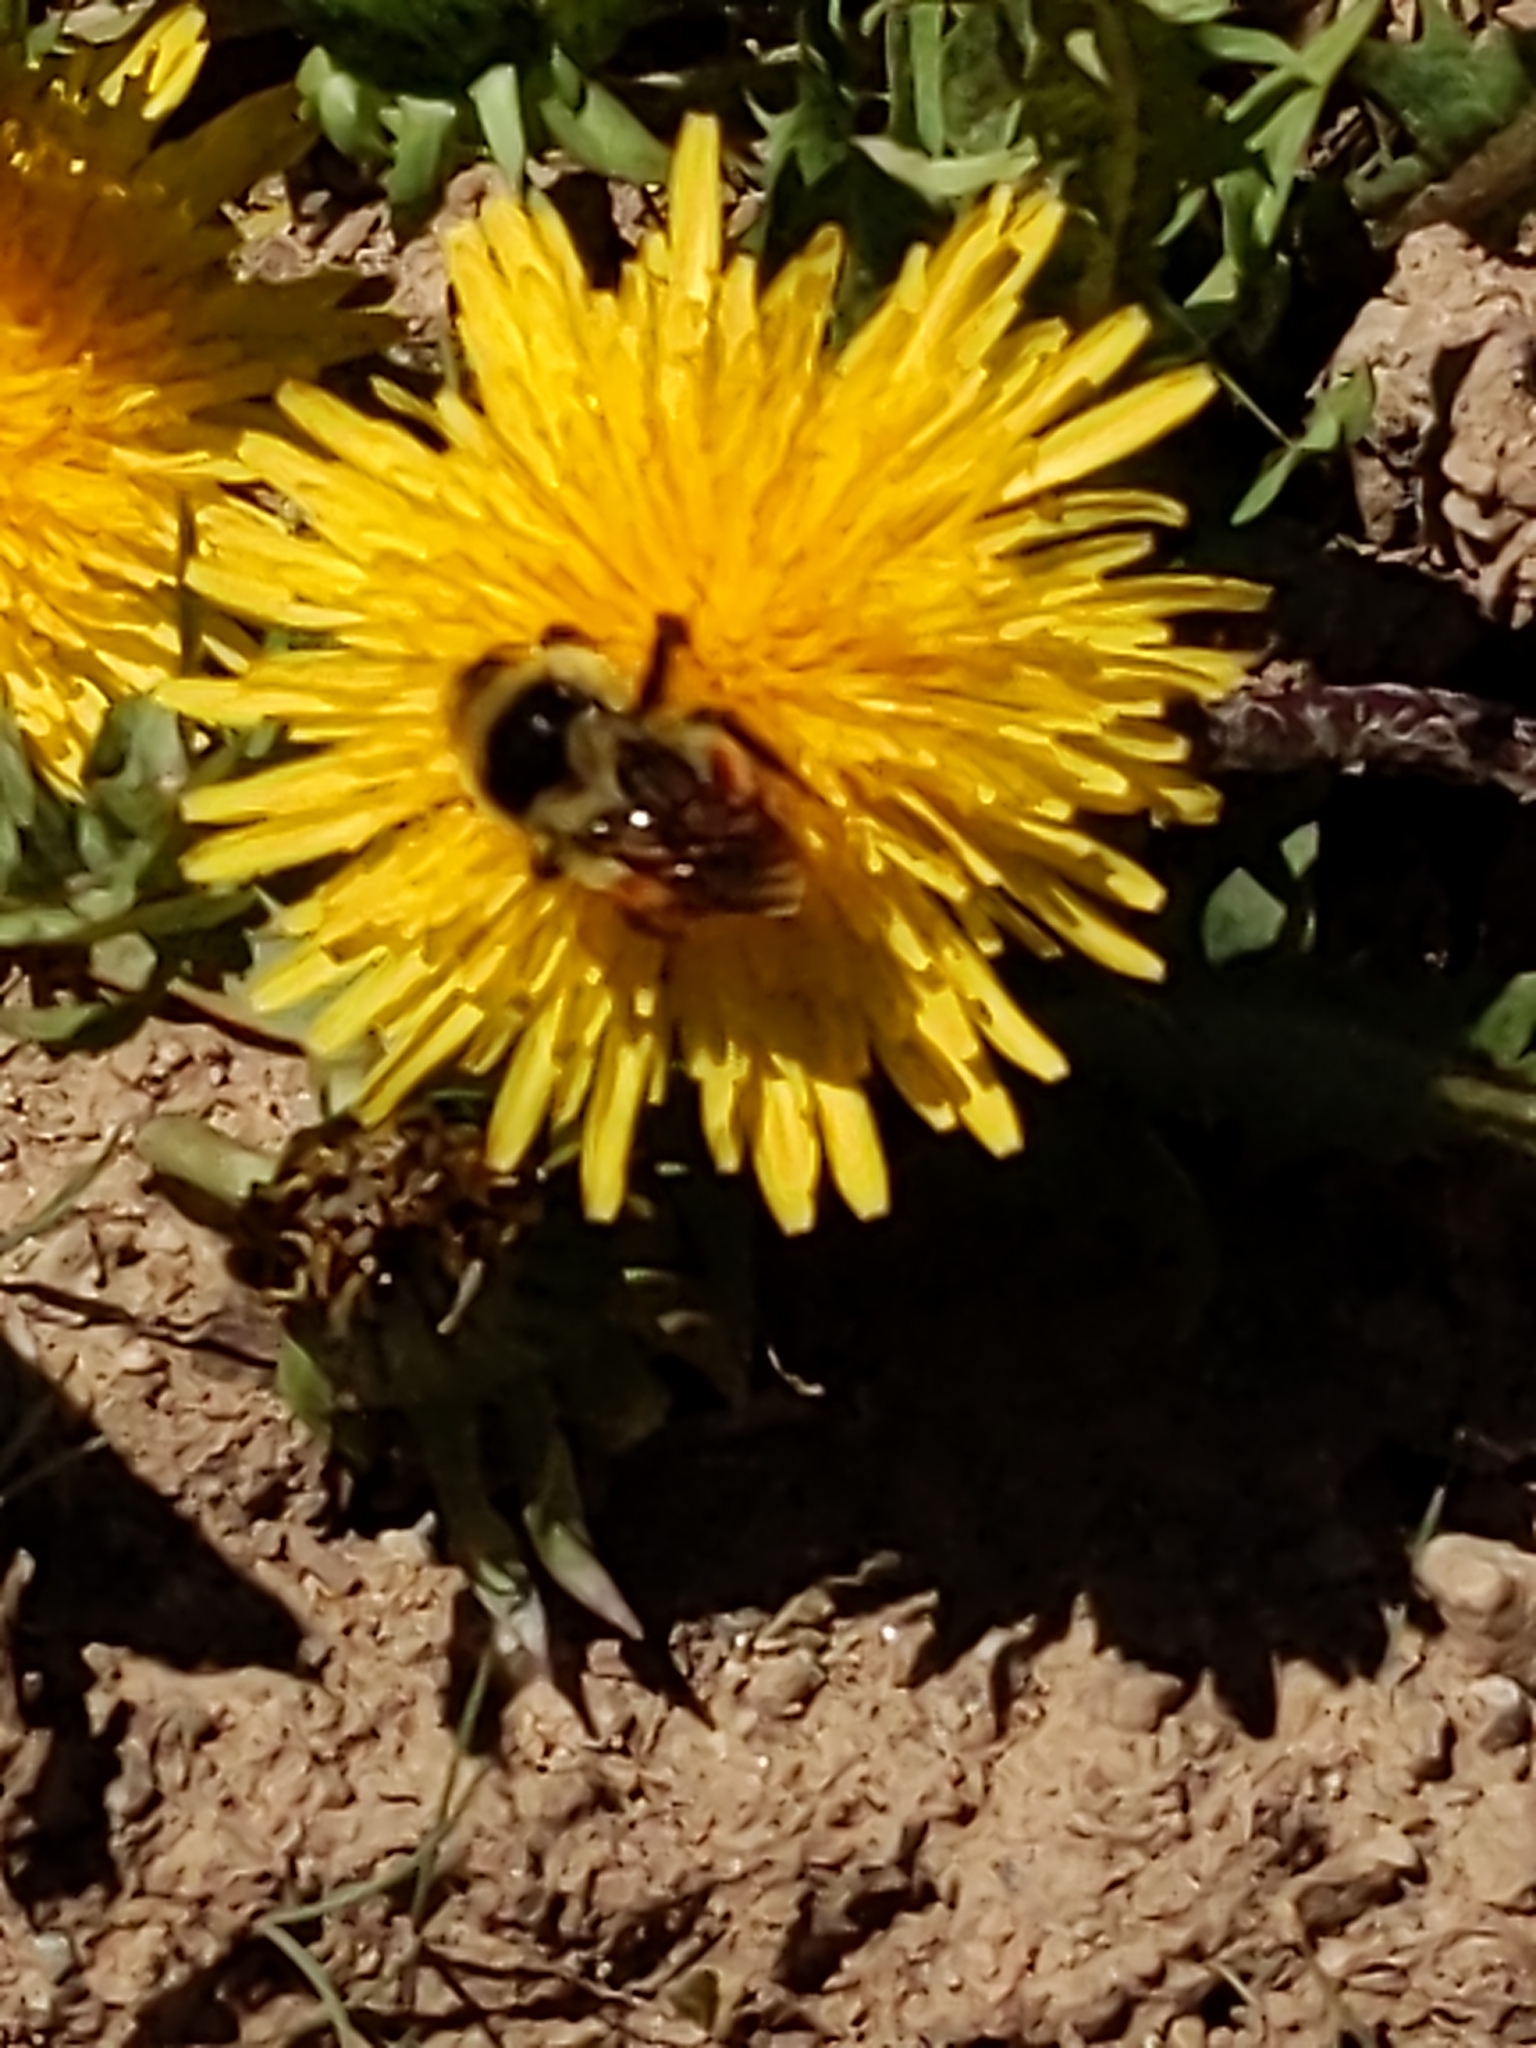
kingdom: Animalia
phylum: Arthropoda
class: Insecta
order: Hymenoptera
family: Apidae
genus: Bombus
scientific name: Bombus bifarius
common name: Two form bumble bee
